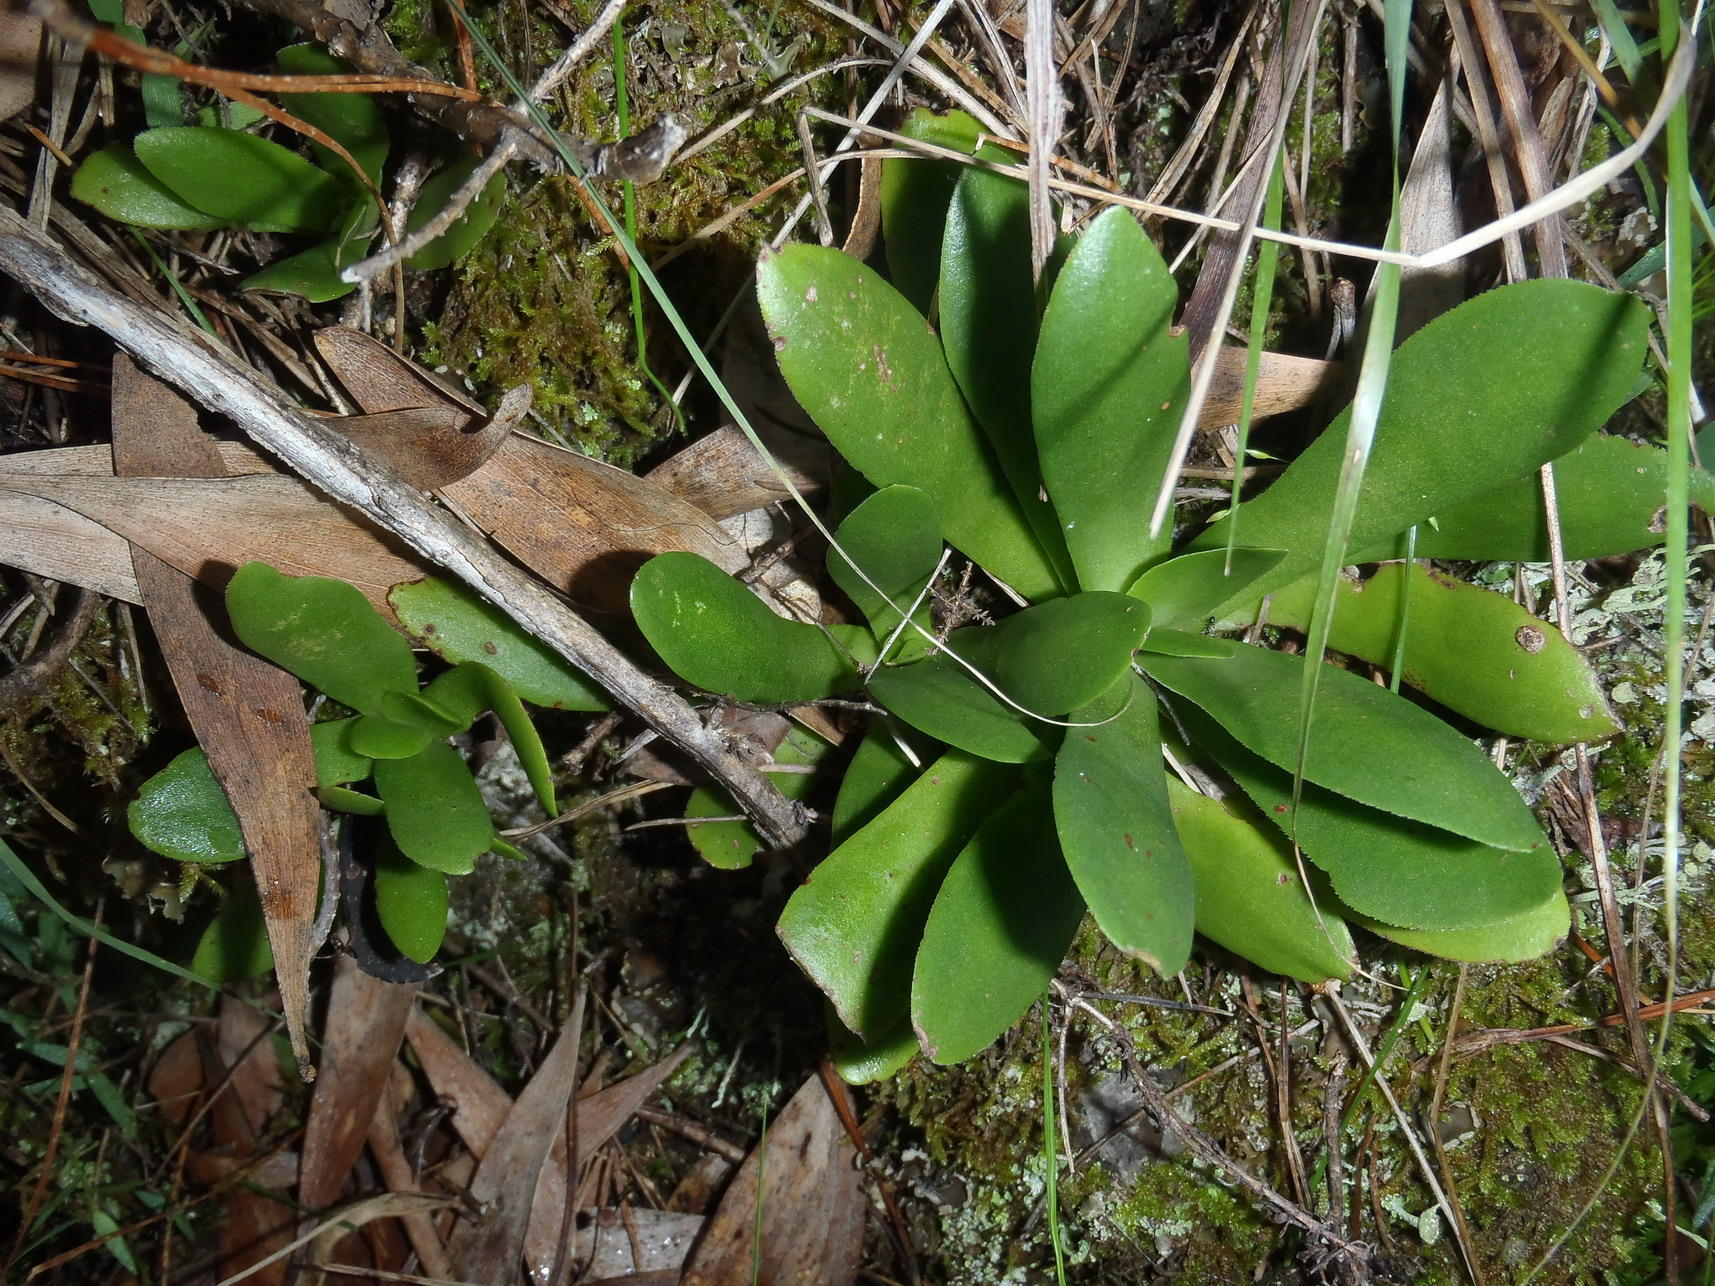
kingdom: Plantae
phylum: Tracheophyta
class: Magnoliopsida
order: Saxifragales
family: Crassulaceae
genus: Crassula
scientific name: Crassula orbicularis
